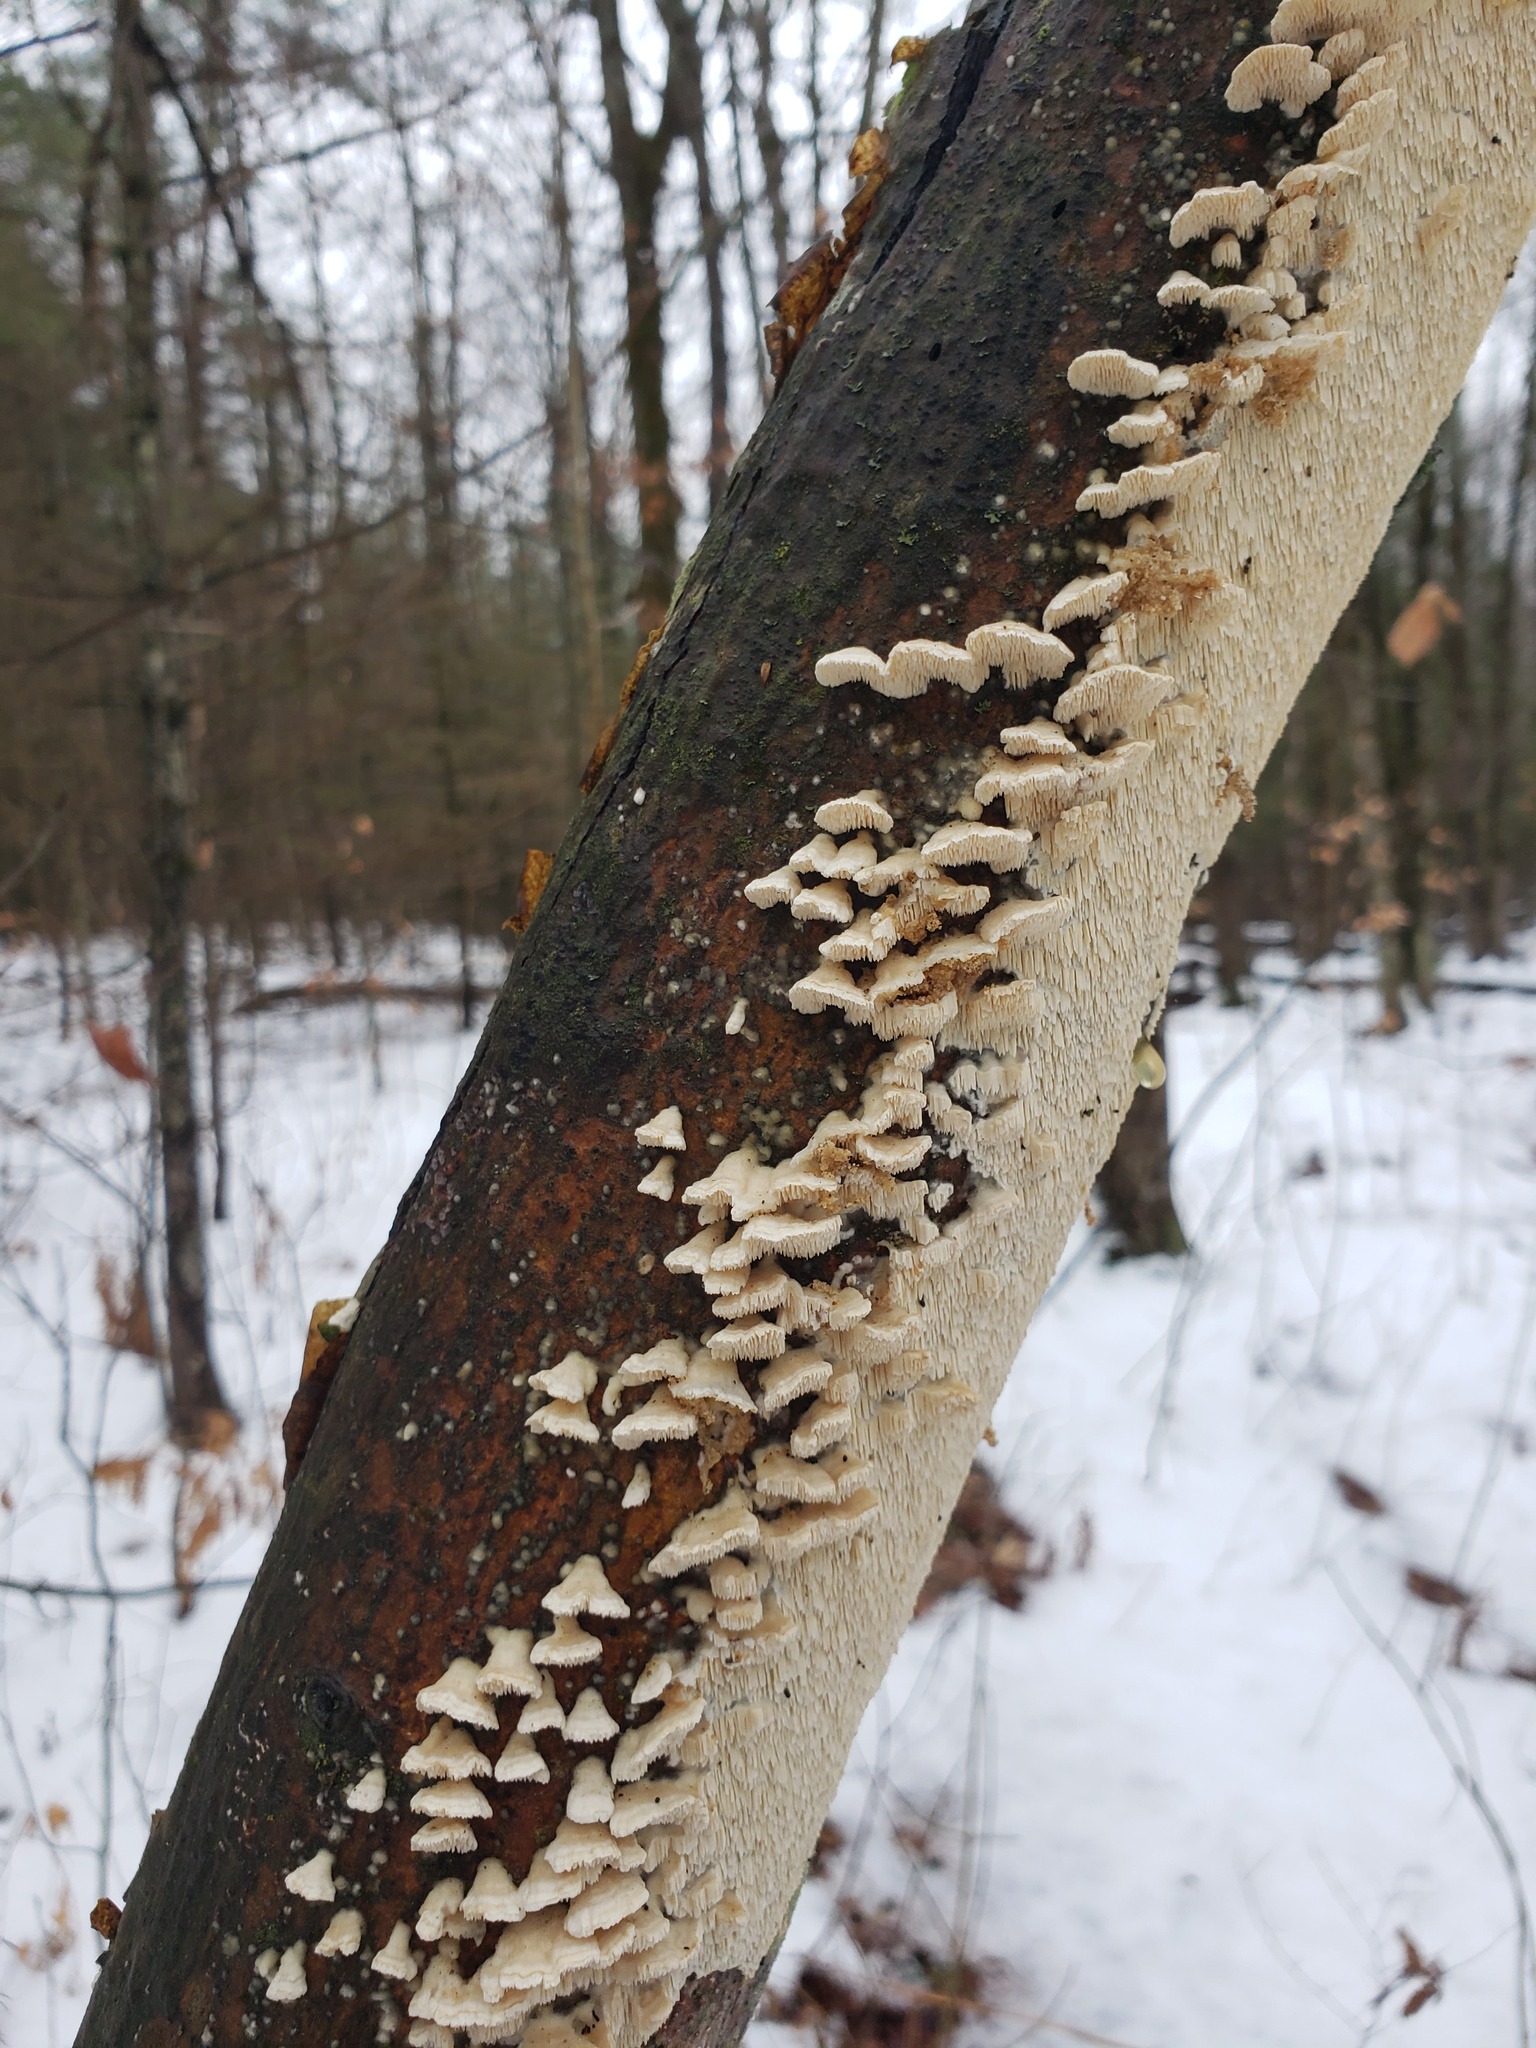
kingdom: Fungi
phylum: Basidiomycota
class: Agaricomycetes
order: Polyporales
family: Irpicaceae
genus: Irpex
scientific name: Irpex lacteus
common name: Milk-white toothed polypore
